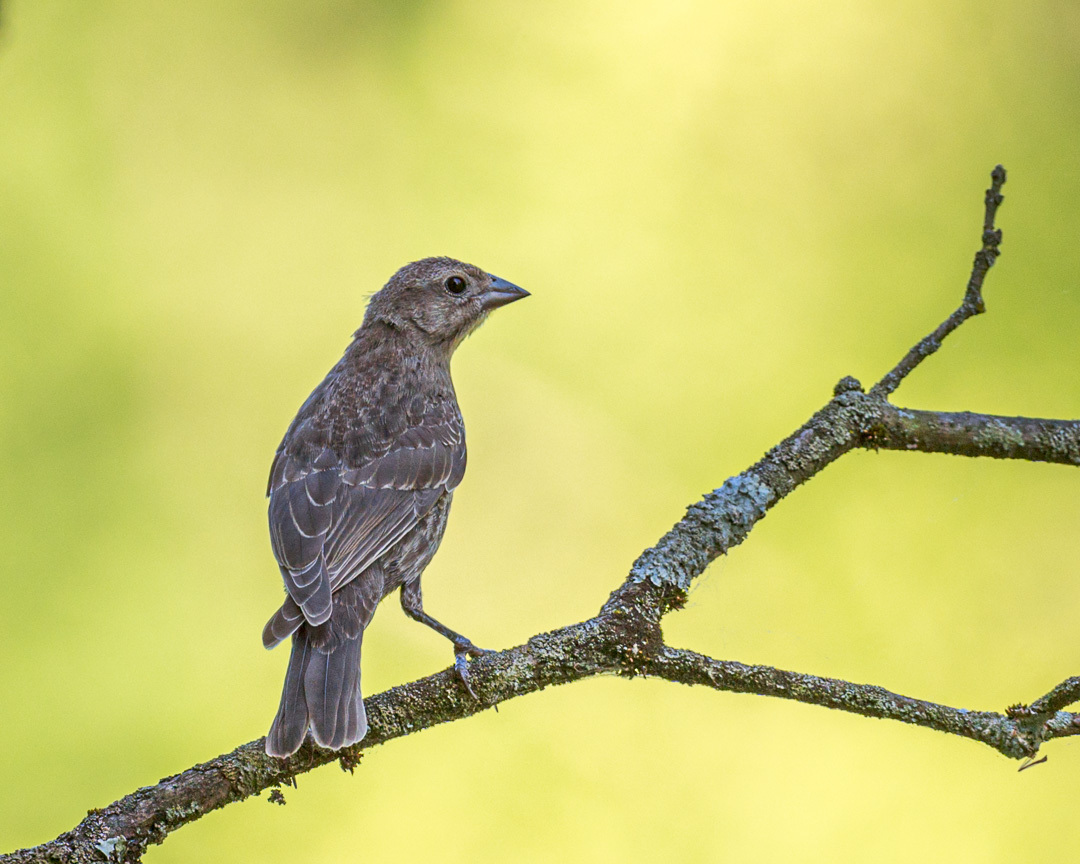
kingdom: Animalia
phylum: Chordata
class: Aves
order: Passeriformes
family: Icteridae
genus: Molothrus
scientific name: Molothrus ater
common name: Brown-headed cowbird
